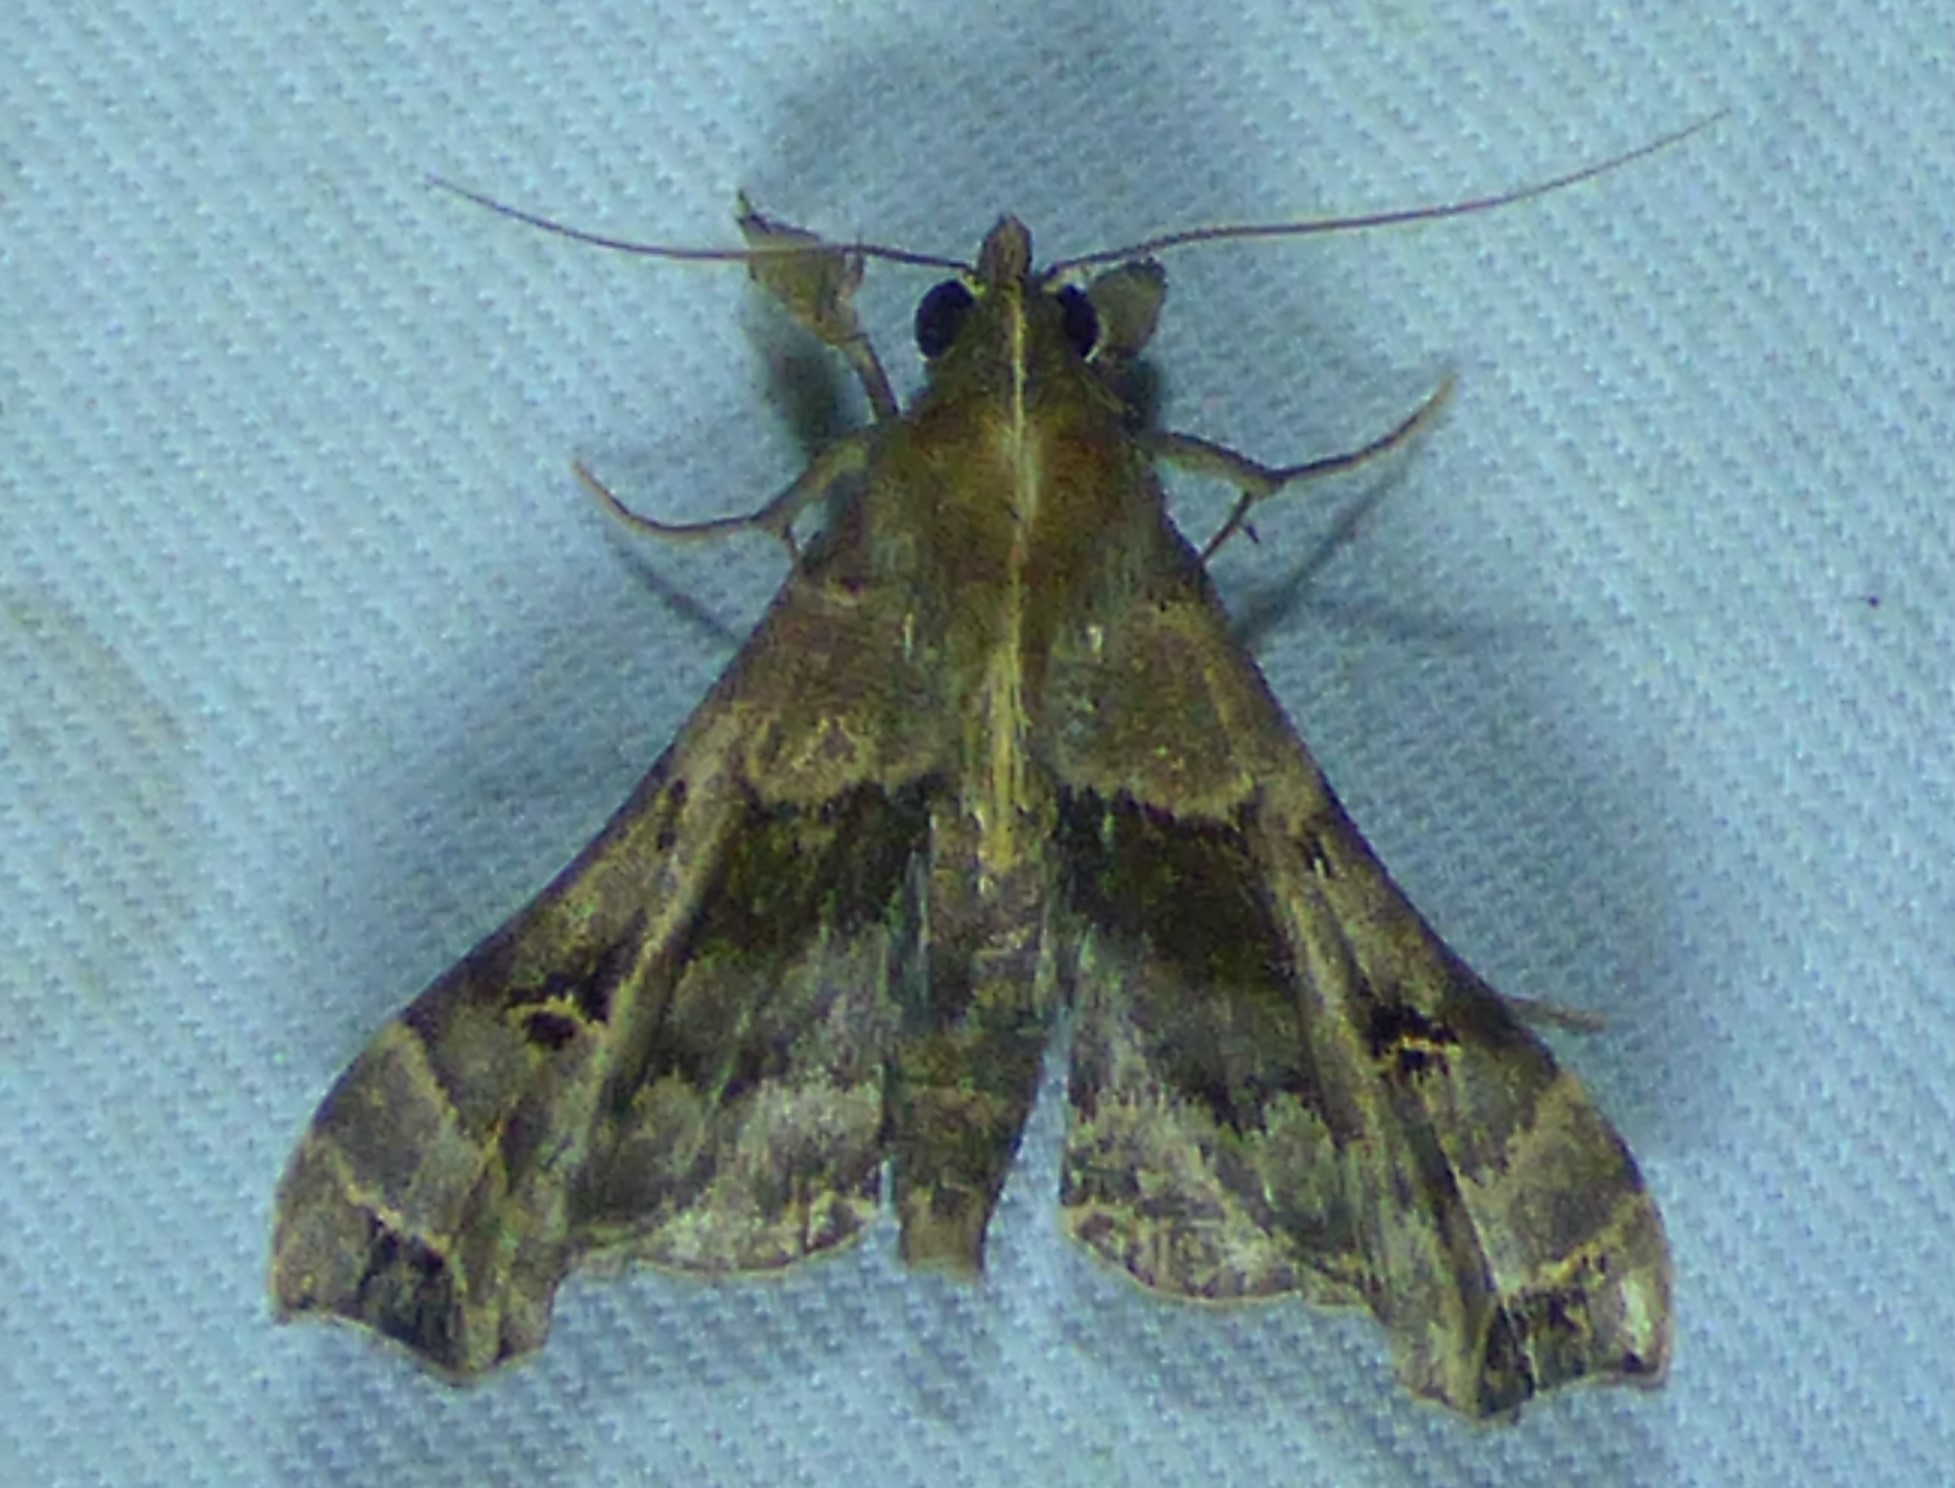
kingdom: Animalia
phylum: Arthropoda
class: Insecta
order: Lepidoptera
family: Erebidae
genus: Palthis
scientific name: Palthis asopialis
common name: Faint-spotted palthis moth
